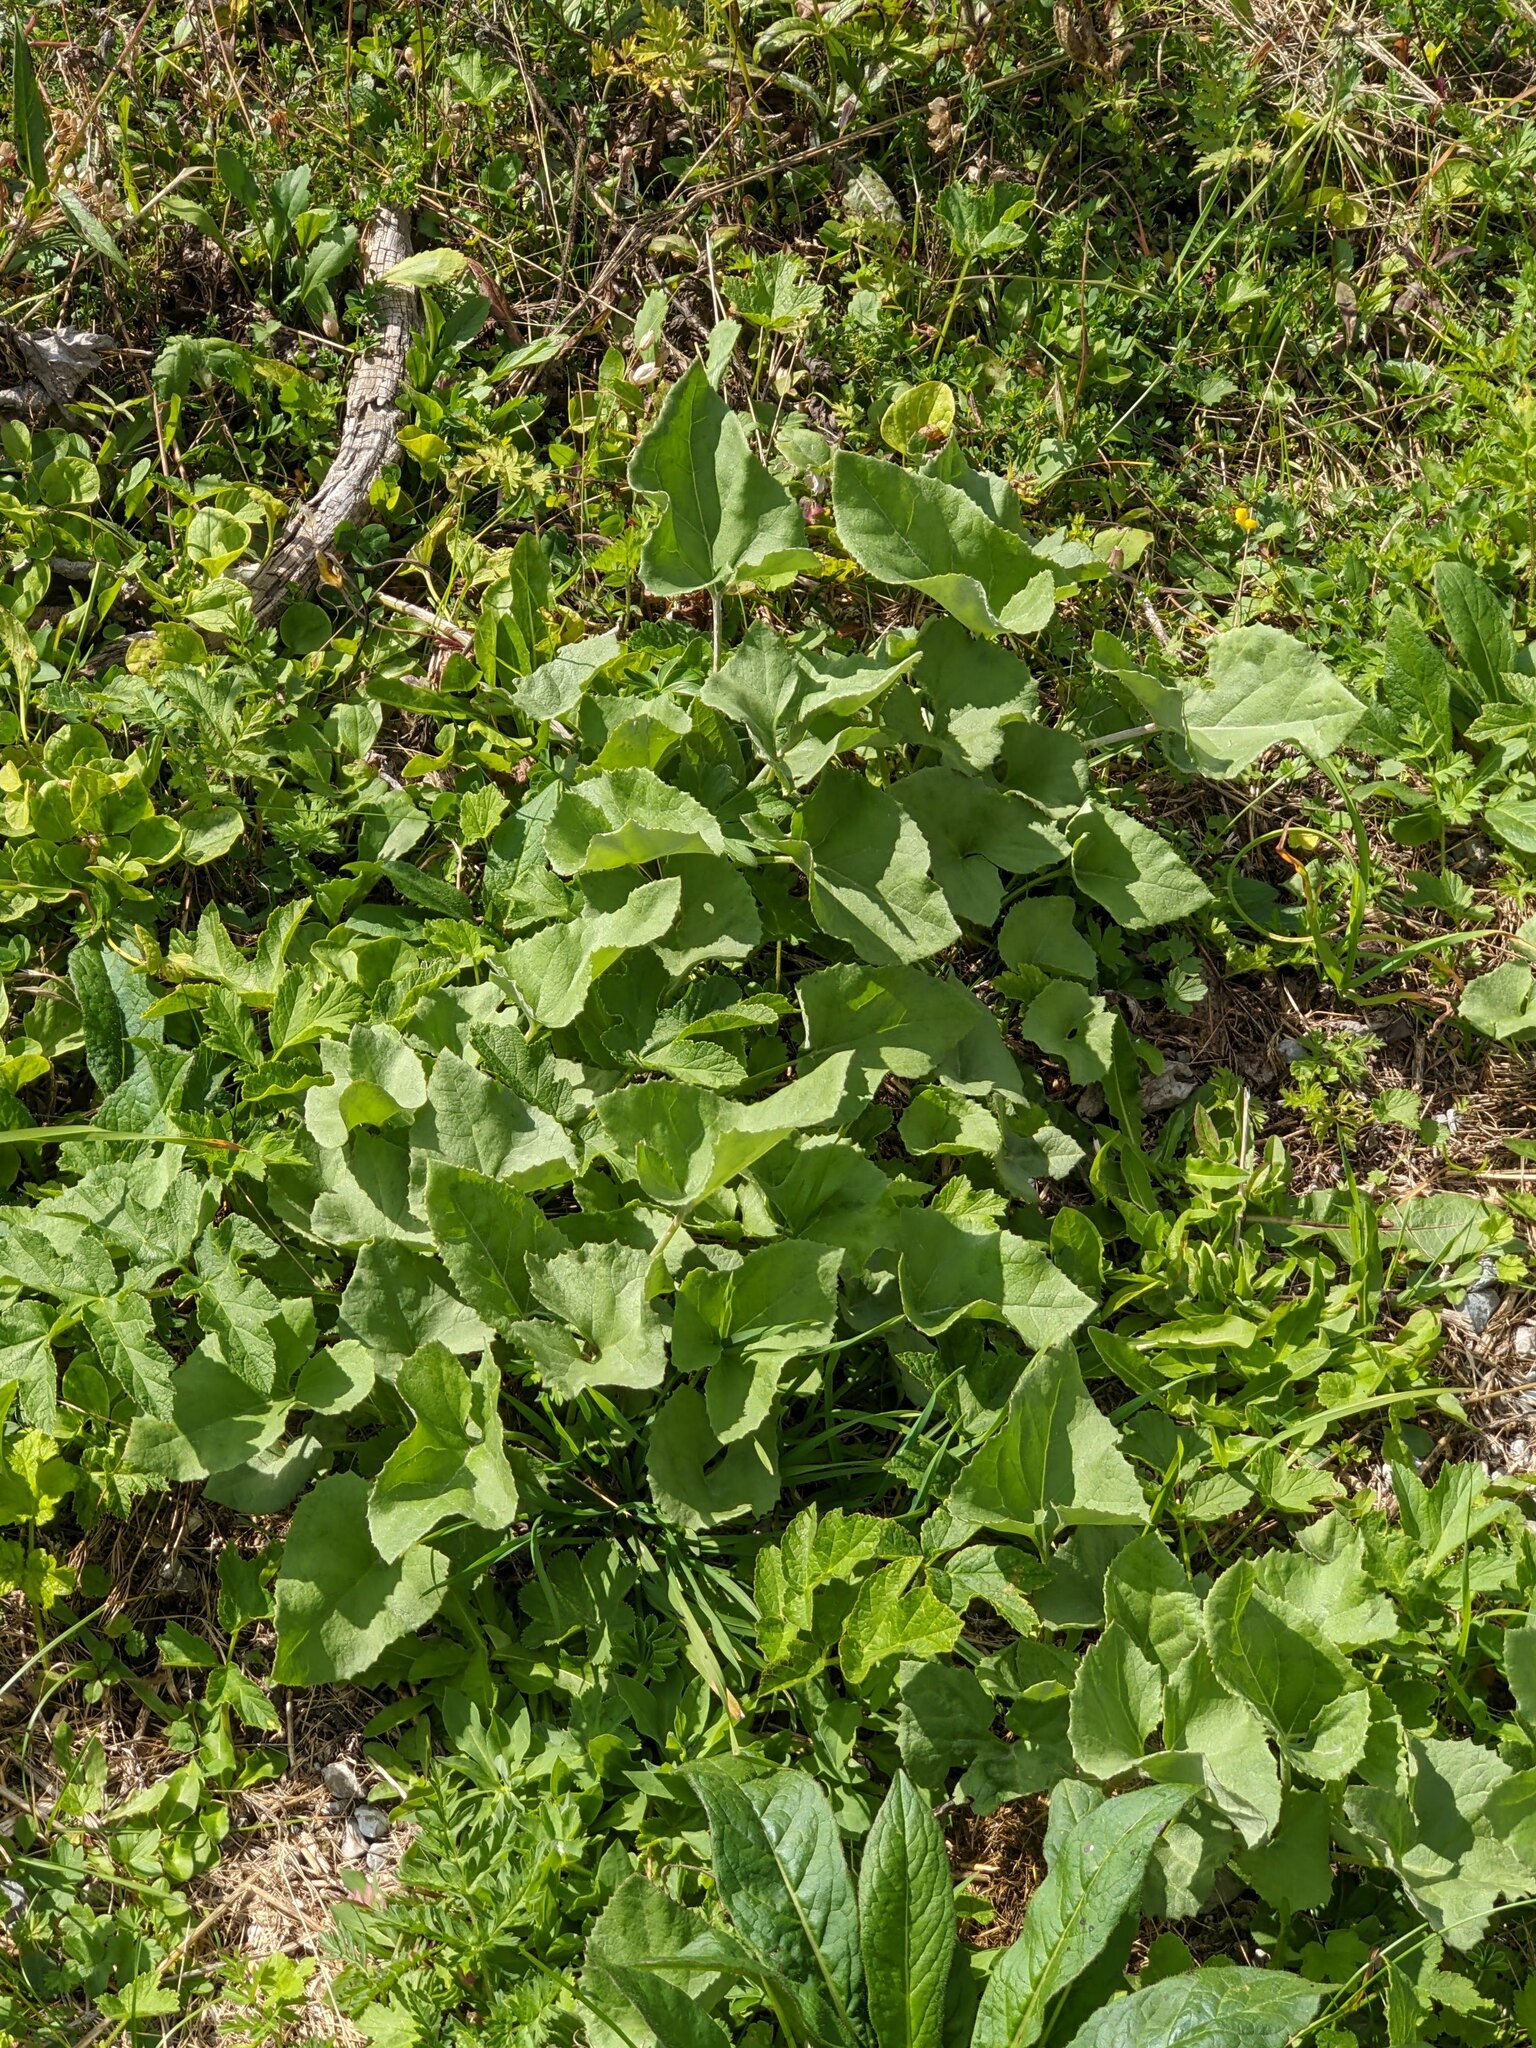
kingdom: Plantae
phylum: Tracheophyta
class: Magnoliopsida
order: Asterales
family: Asteraceae
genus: Petasites
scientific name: Petasites paradoxus
